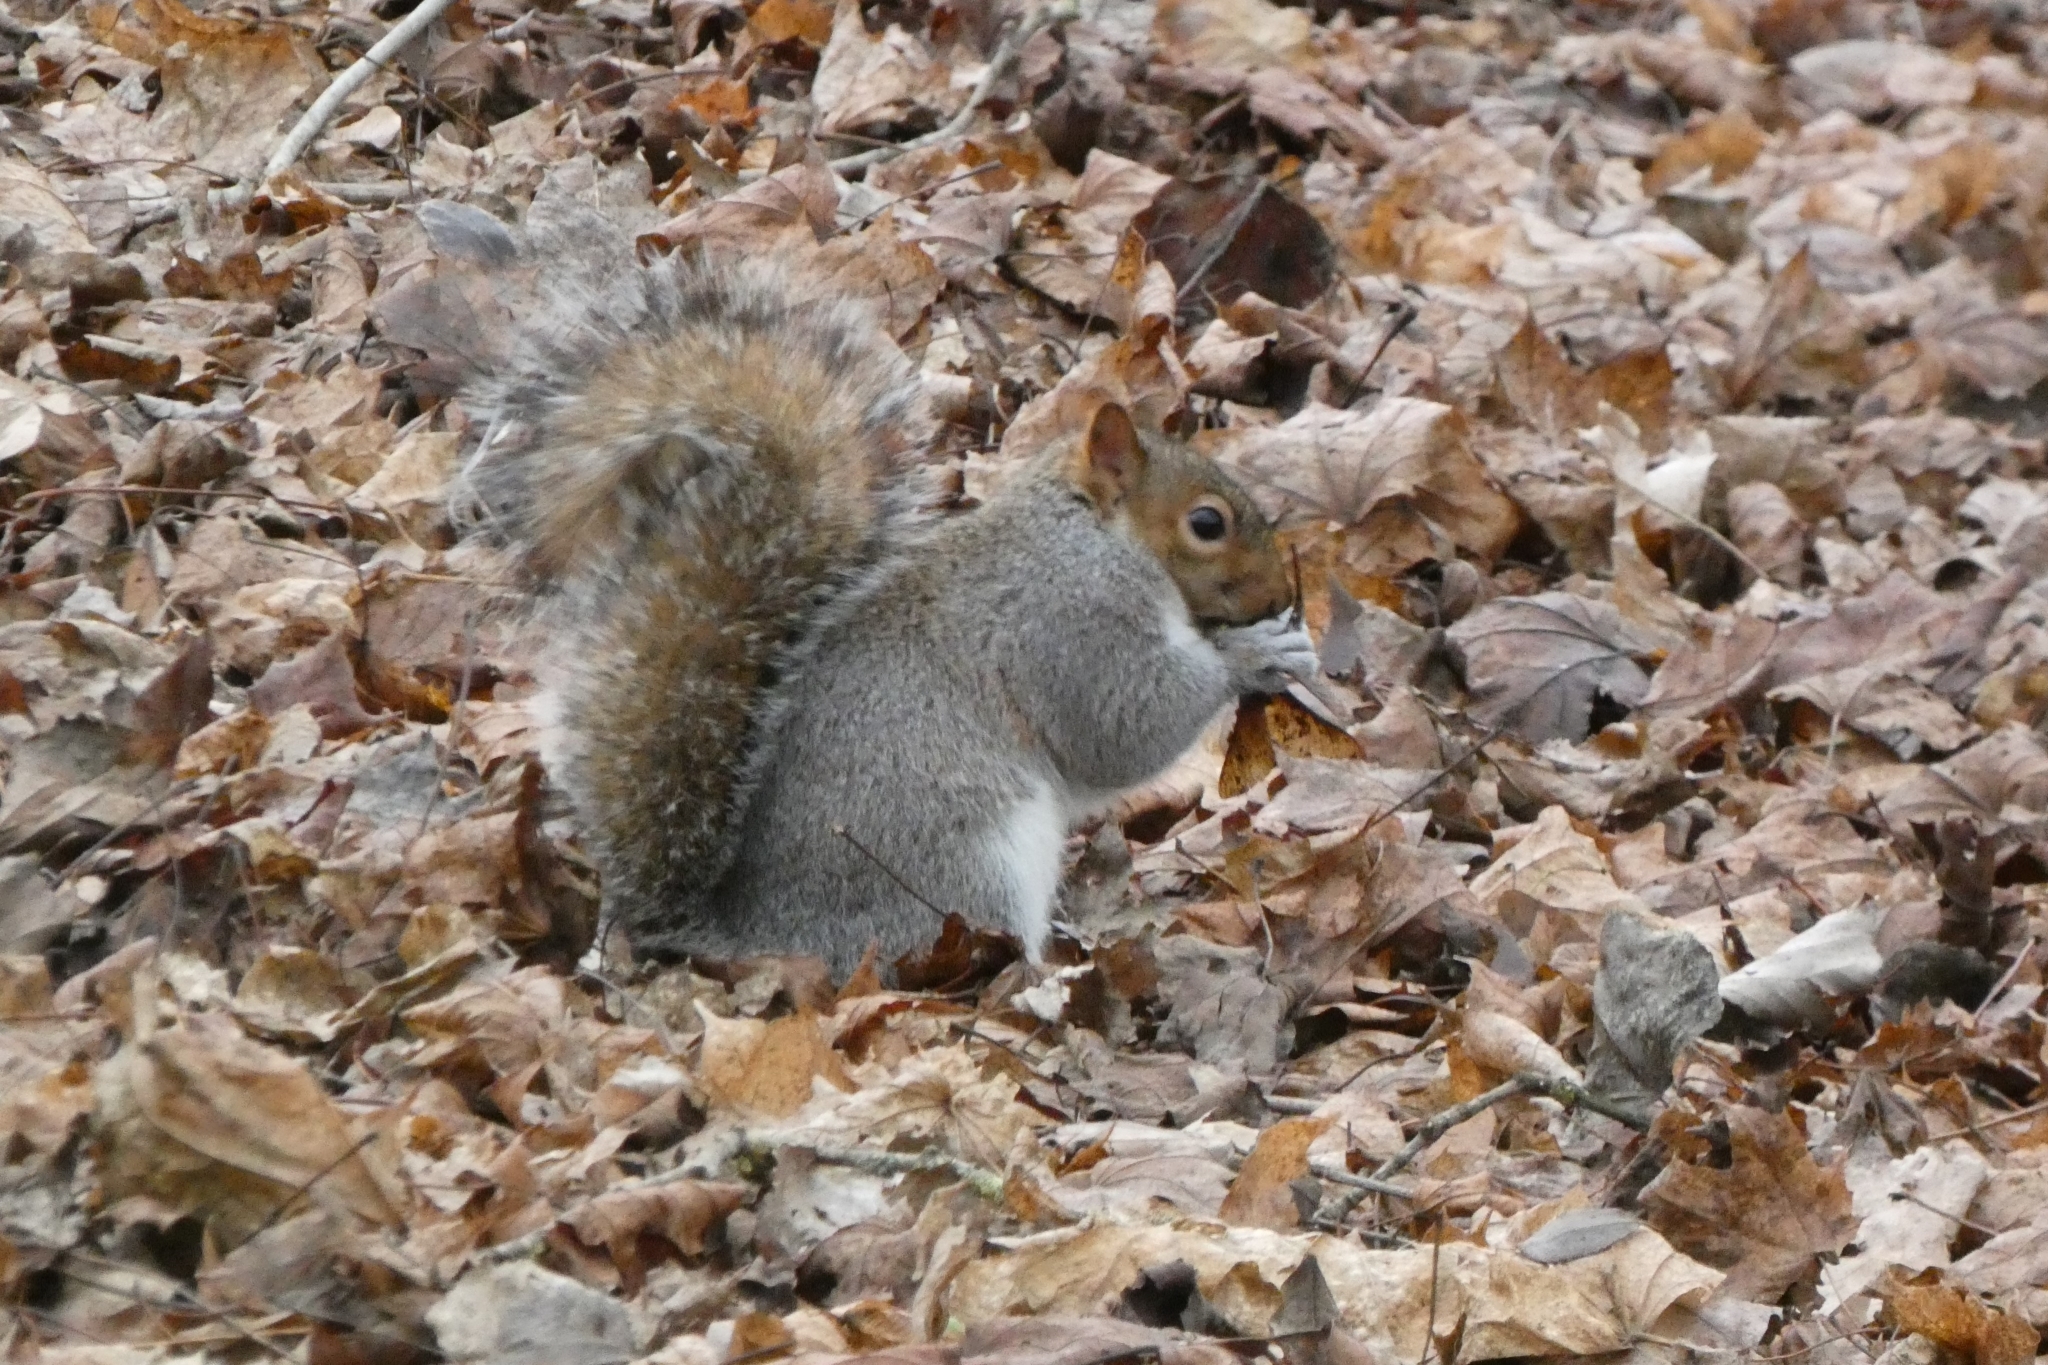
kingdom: Animalia
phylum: Chordata
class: Mammalia
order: Rodentia
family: Sciuridae
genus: Sciurus
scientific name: Sciurus carolinensis
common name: Eastern gray squirrel
